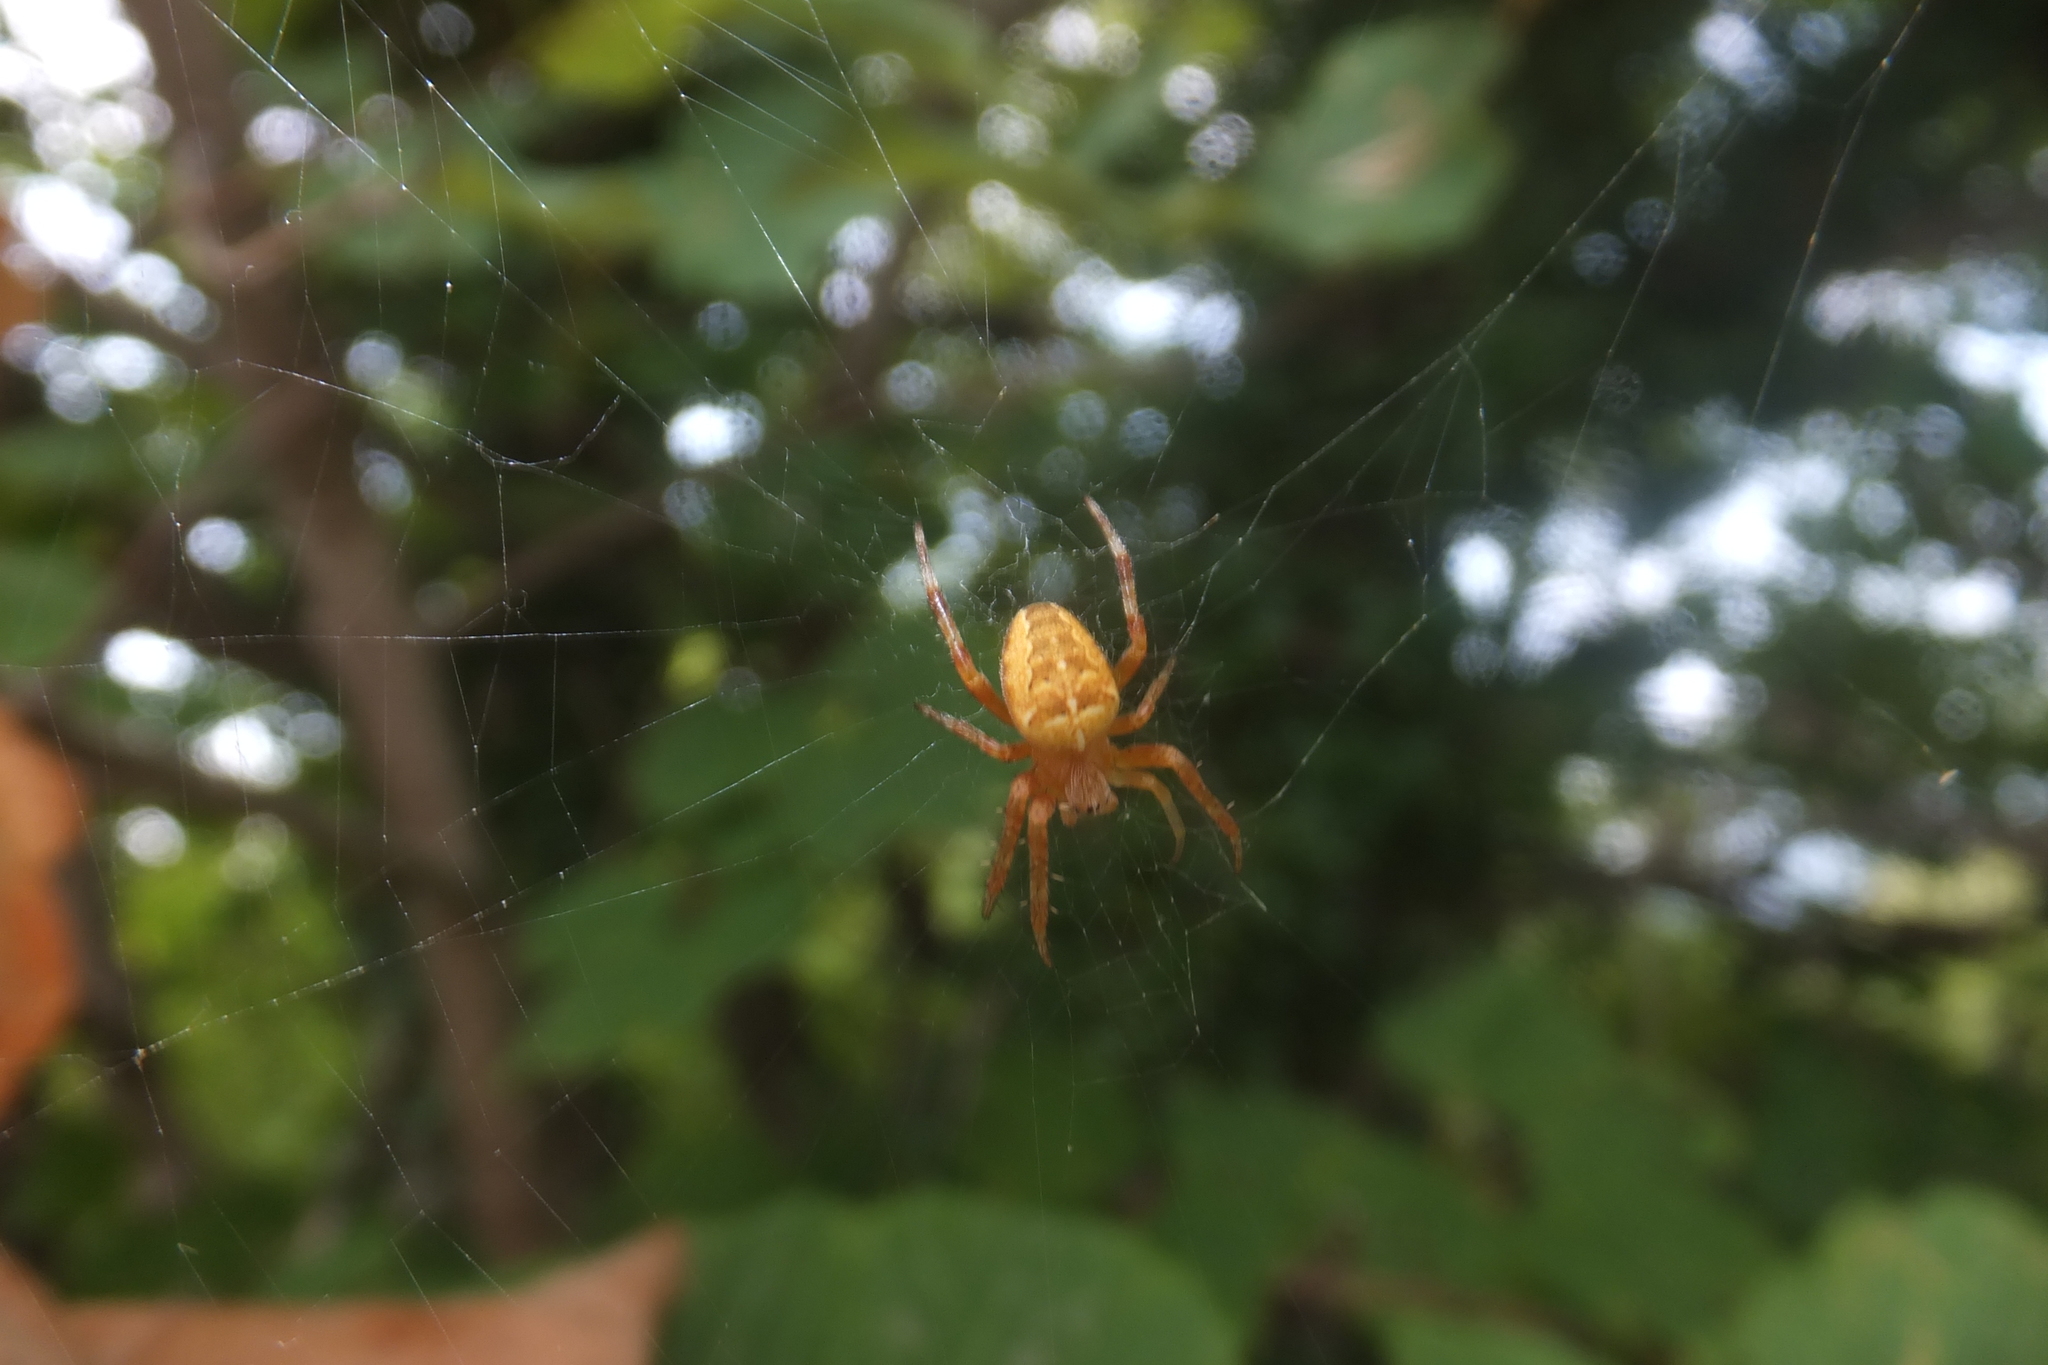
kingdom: Animalia
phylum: Arthropoda
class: Arachnida
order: Araneae
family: Araneidae
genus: Araneus
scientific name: Araneus diadematus
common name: Cross orbweaver
